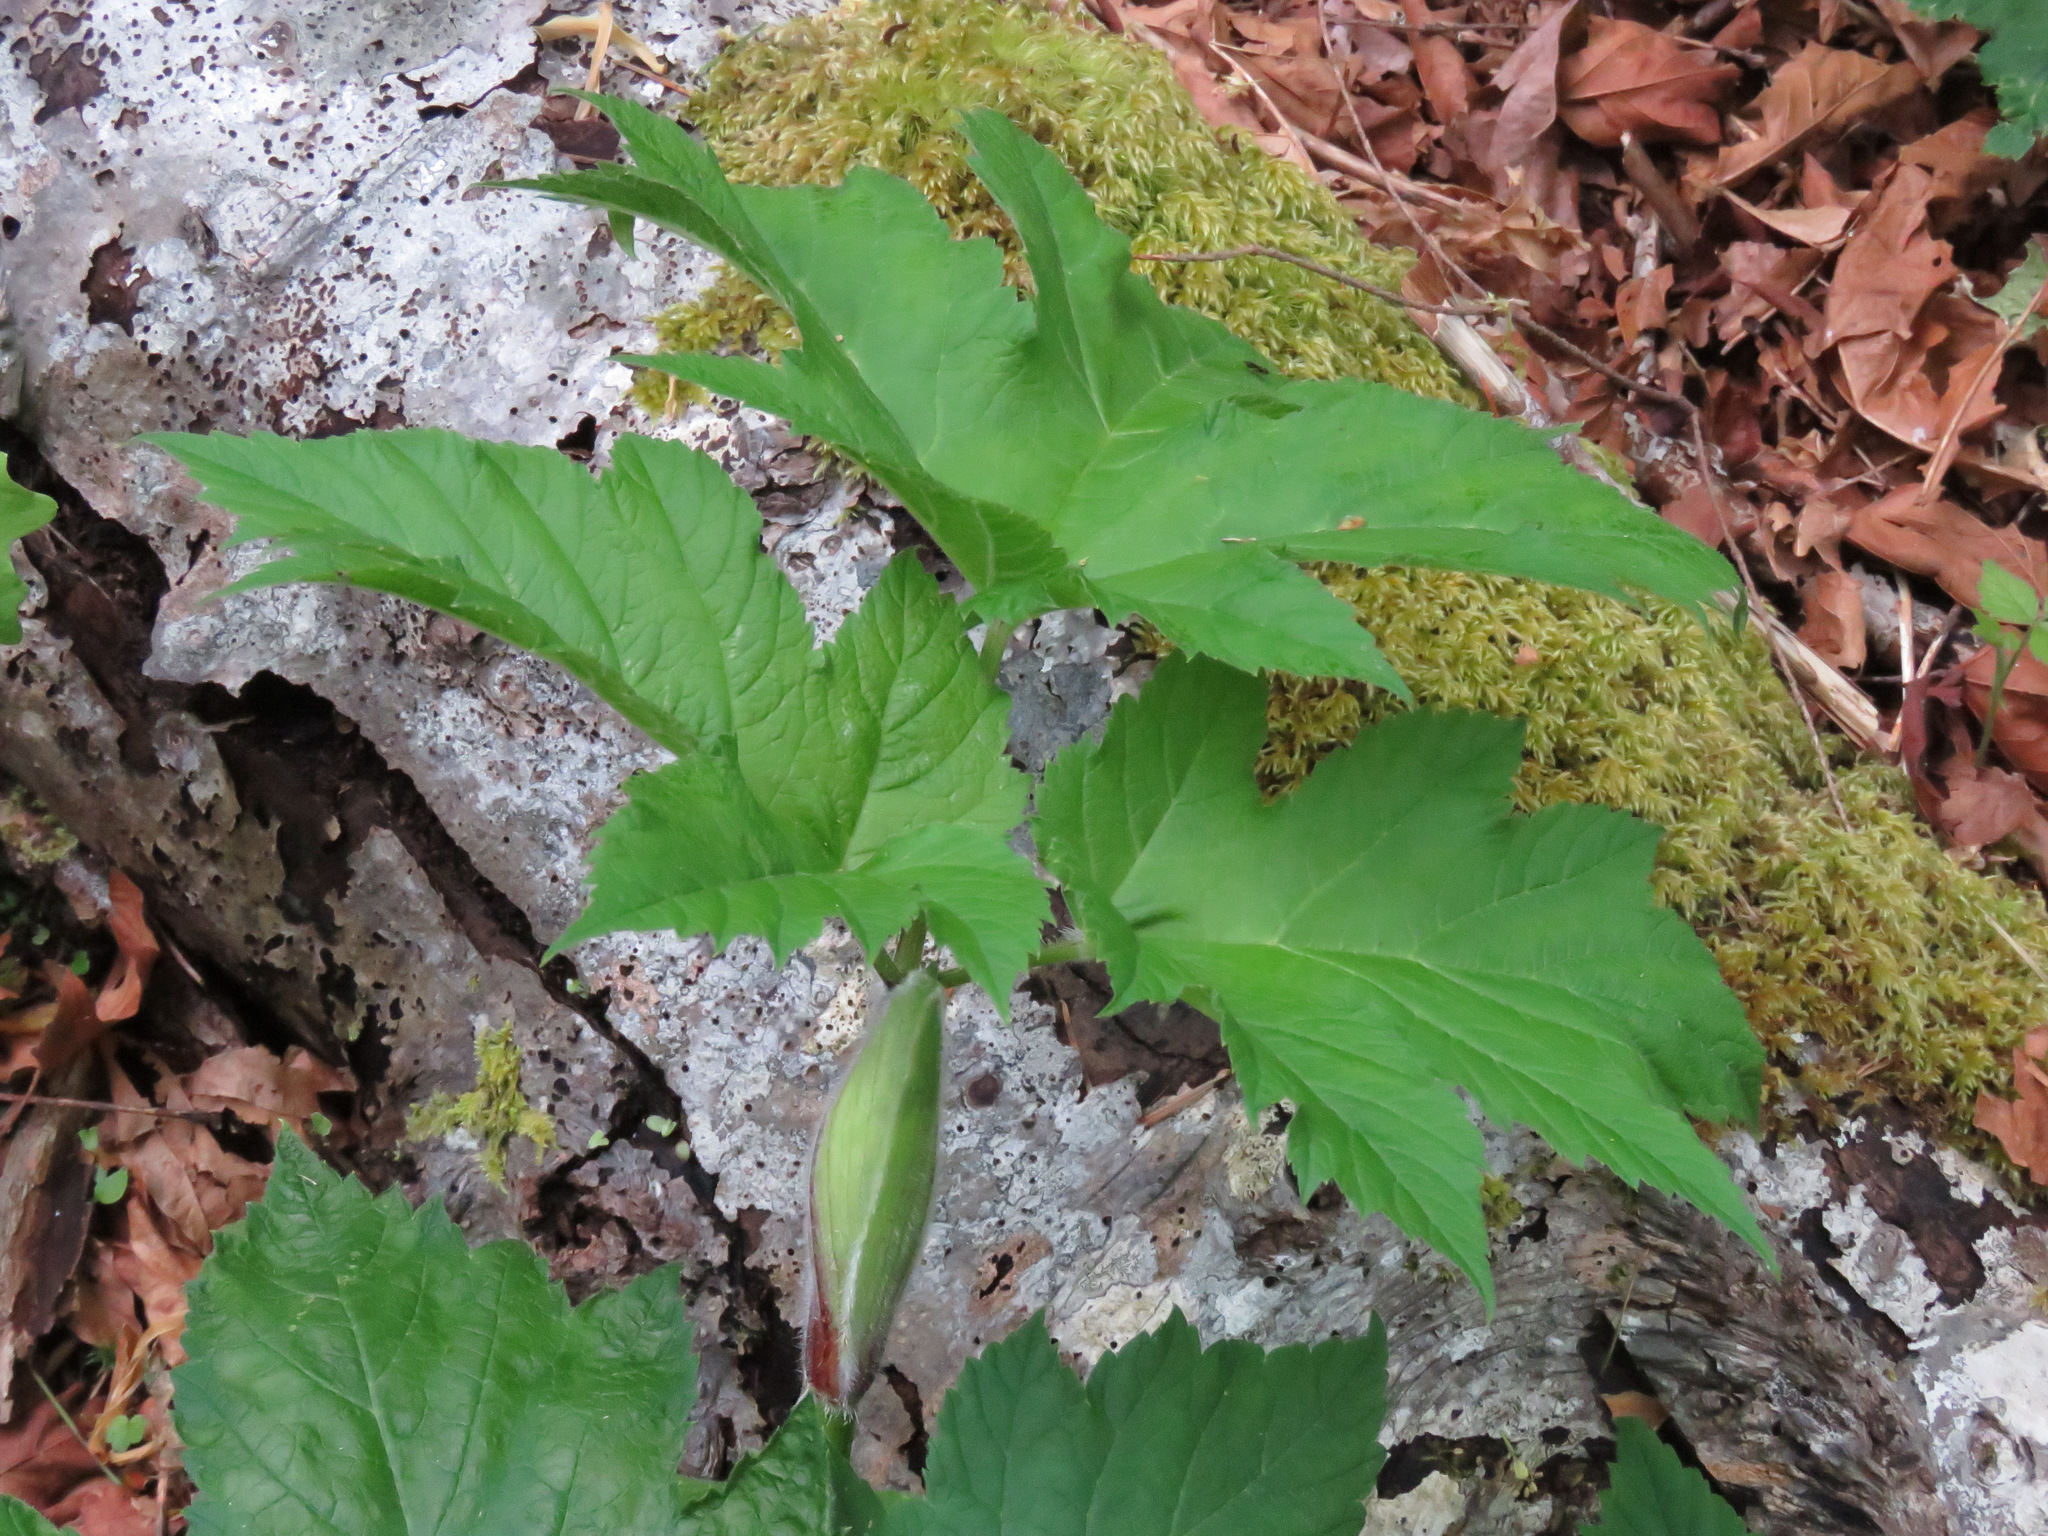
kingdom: Plantae
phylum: Tracheophyta
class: Magnoliopsida
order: Apiales
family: Apiaceae
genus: Heracleum
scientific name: Heracleum maximum
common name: American cow parsnip
